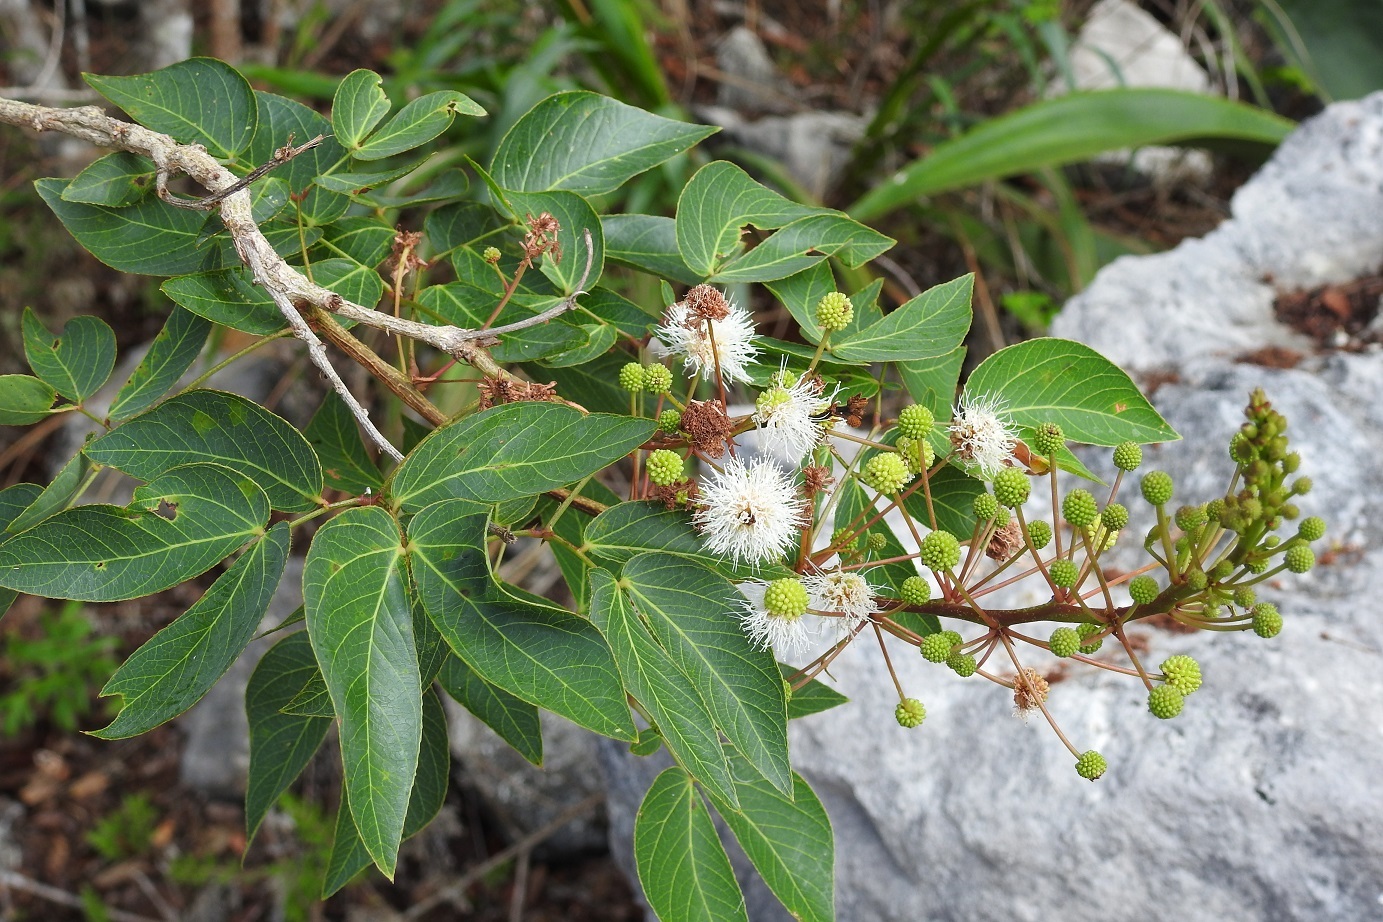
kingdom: Plantae
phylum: Tracheophyta
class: Magnoliopsida
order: Fabales
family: Fabaceae
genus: Mimosa
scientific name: Mimosa lactiflua
